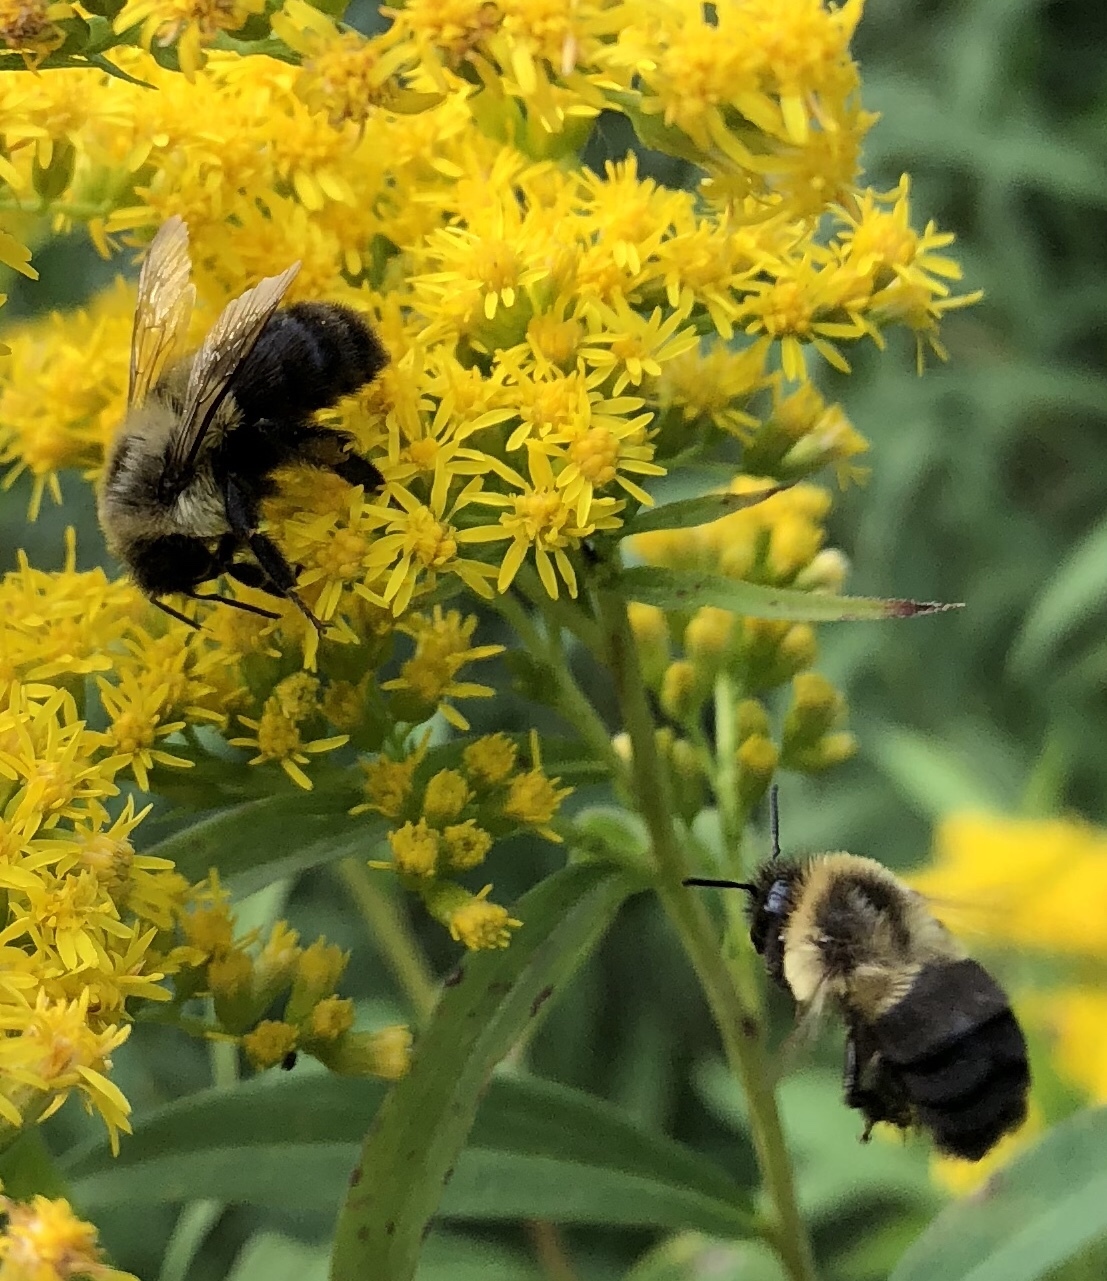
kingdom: Animalia
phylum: Arthropoda
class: Insecta
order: Hymenoptera
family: Apidae
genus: Bombus
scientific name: Bombus impatiens
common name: Common eastern bumble bee
